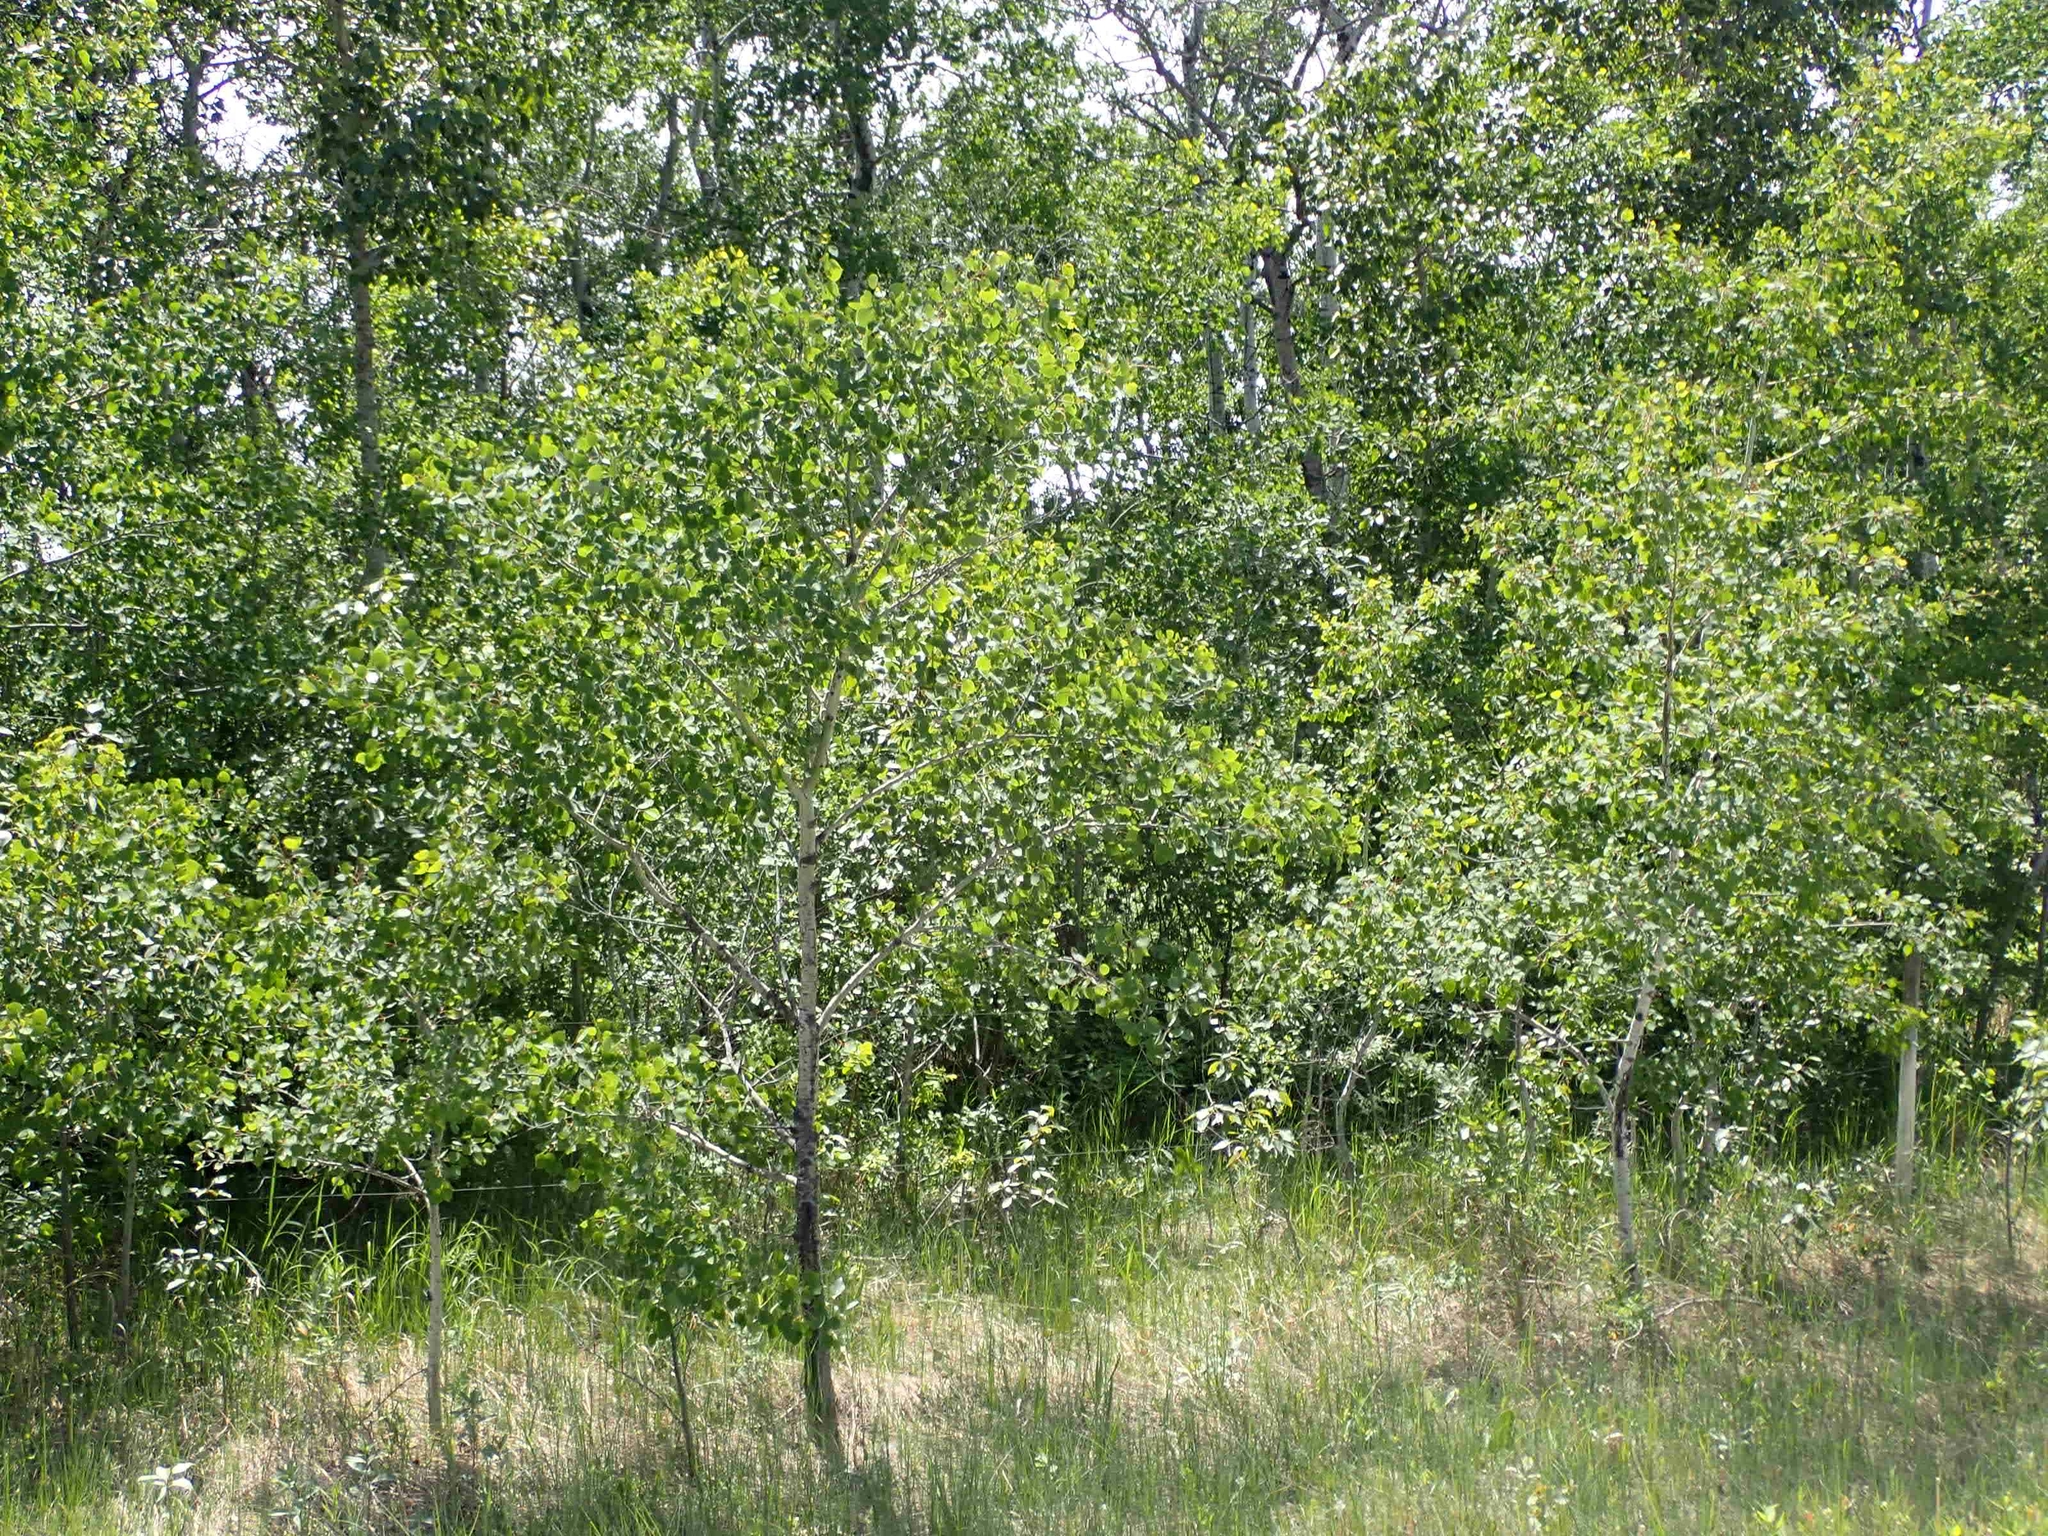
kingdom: Plantae
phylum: Tracheophyta
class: Magnoliopsida
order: Malpighiales
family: Salicaceae
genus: Populus
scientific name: Populus tremuloides
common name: Quaking aspen
